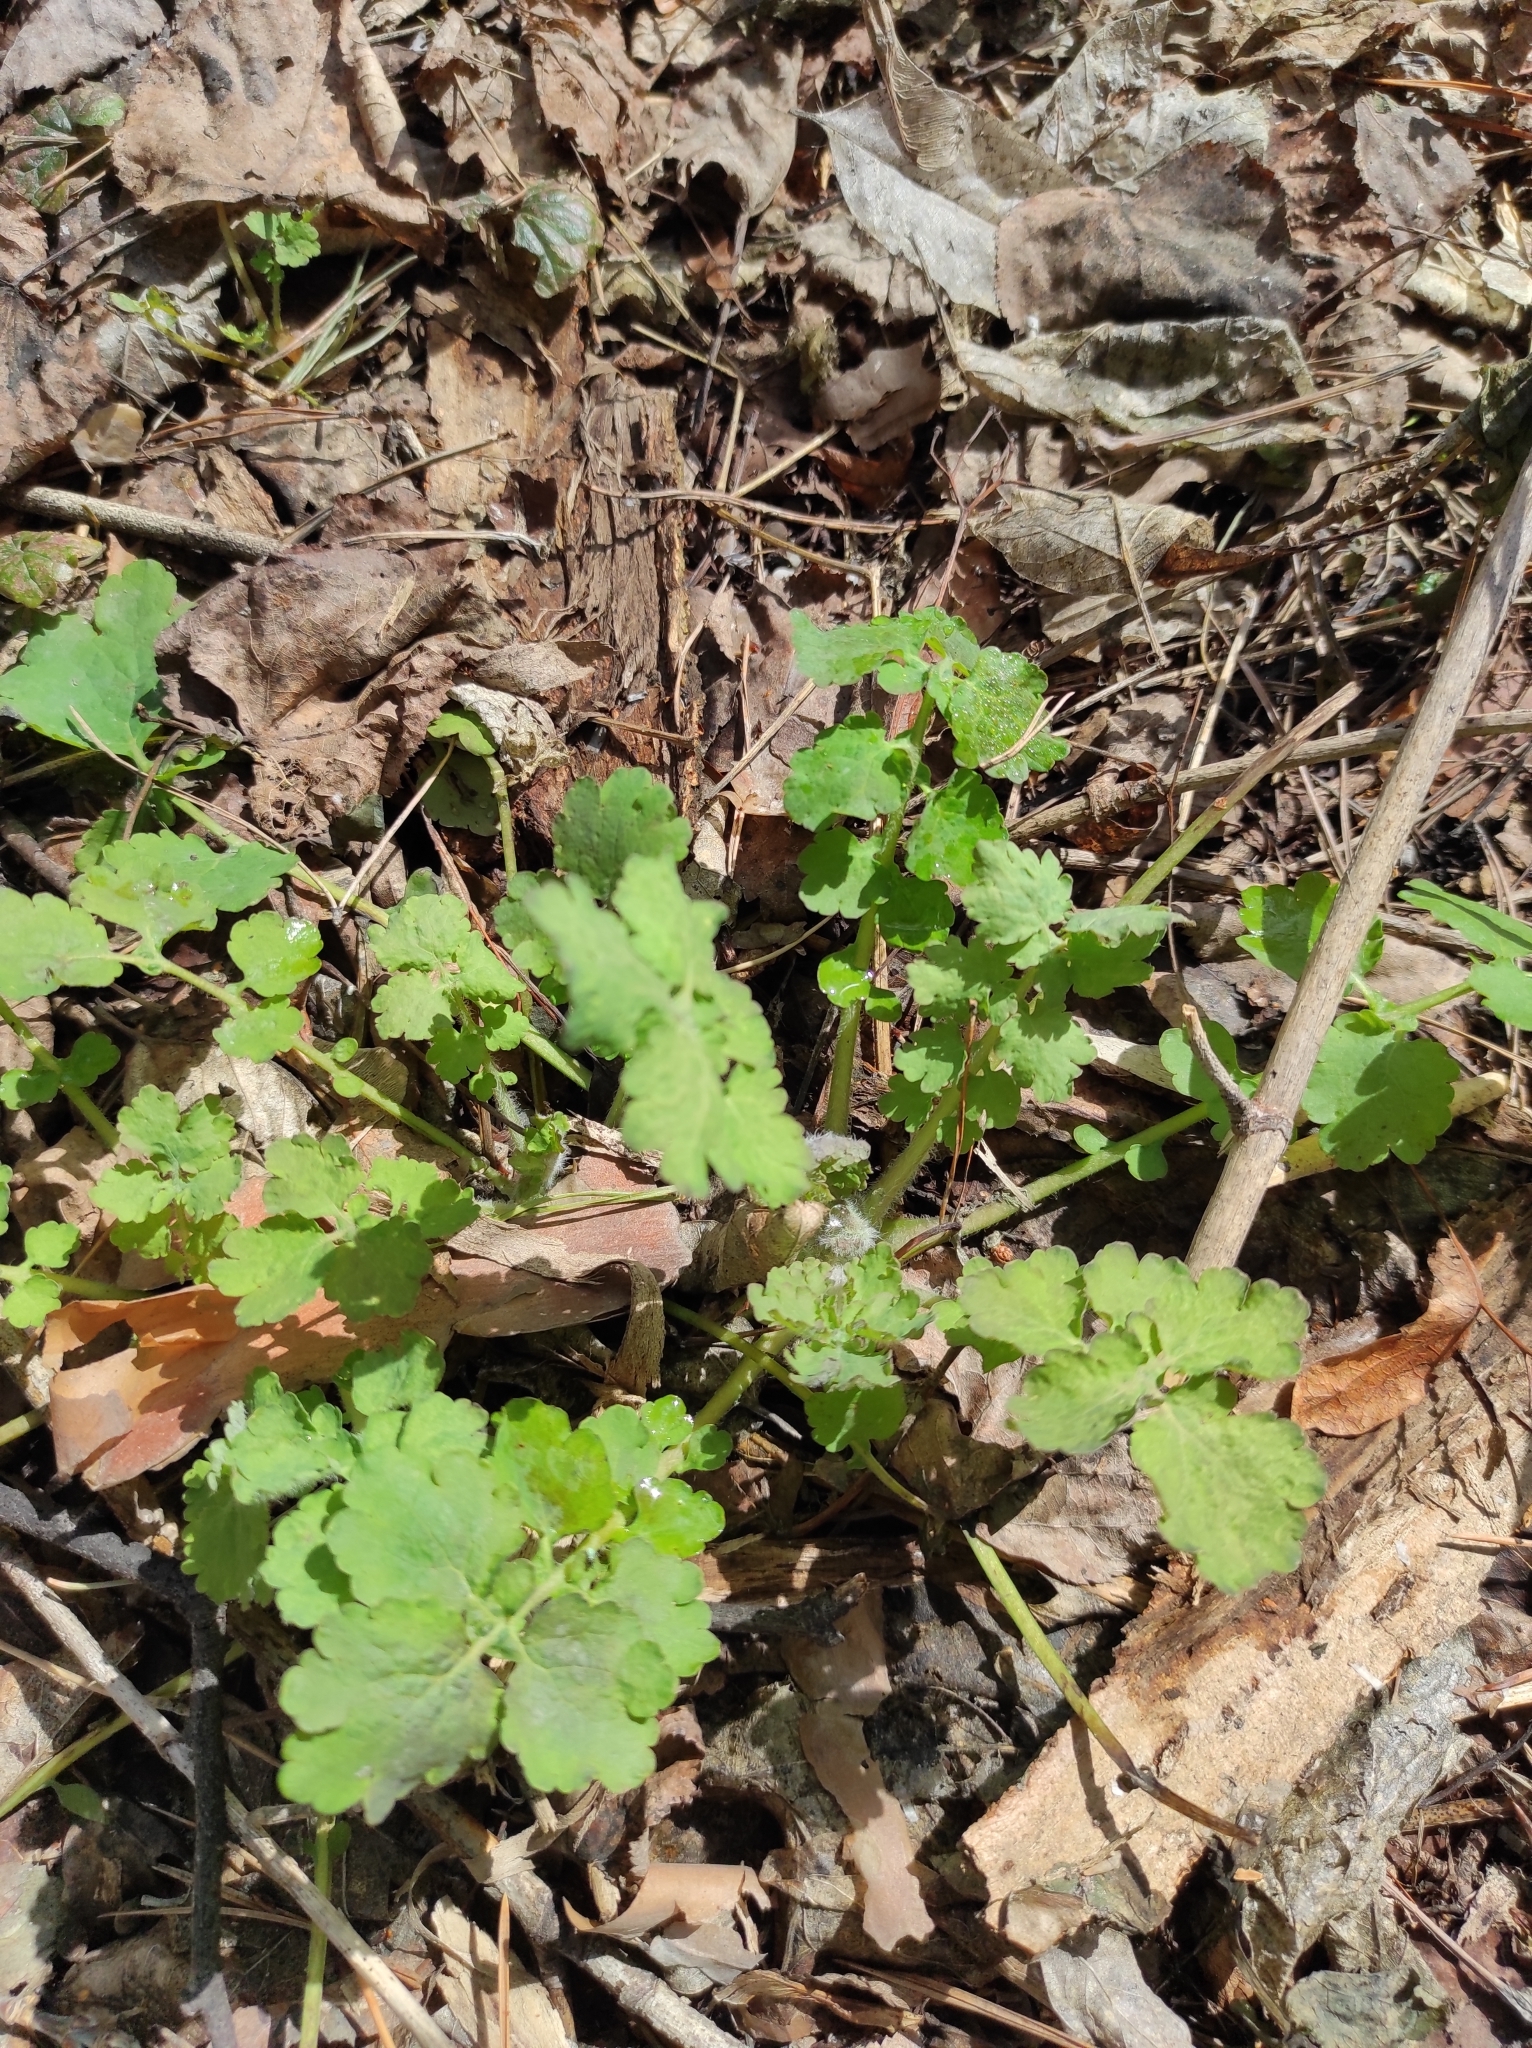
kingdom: Plantae
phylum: Tracheophyta
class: Magnoliopsida
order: Ranunculales
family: Papaveraceae
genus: Chelidonium
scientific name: Chelidonium majus
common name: Greater celandine
